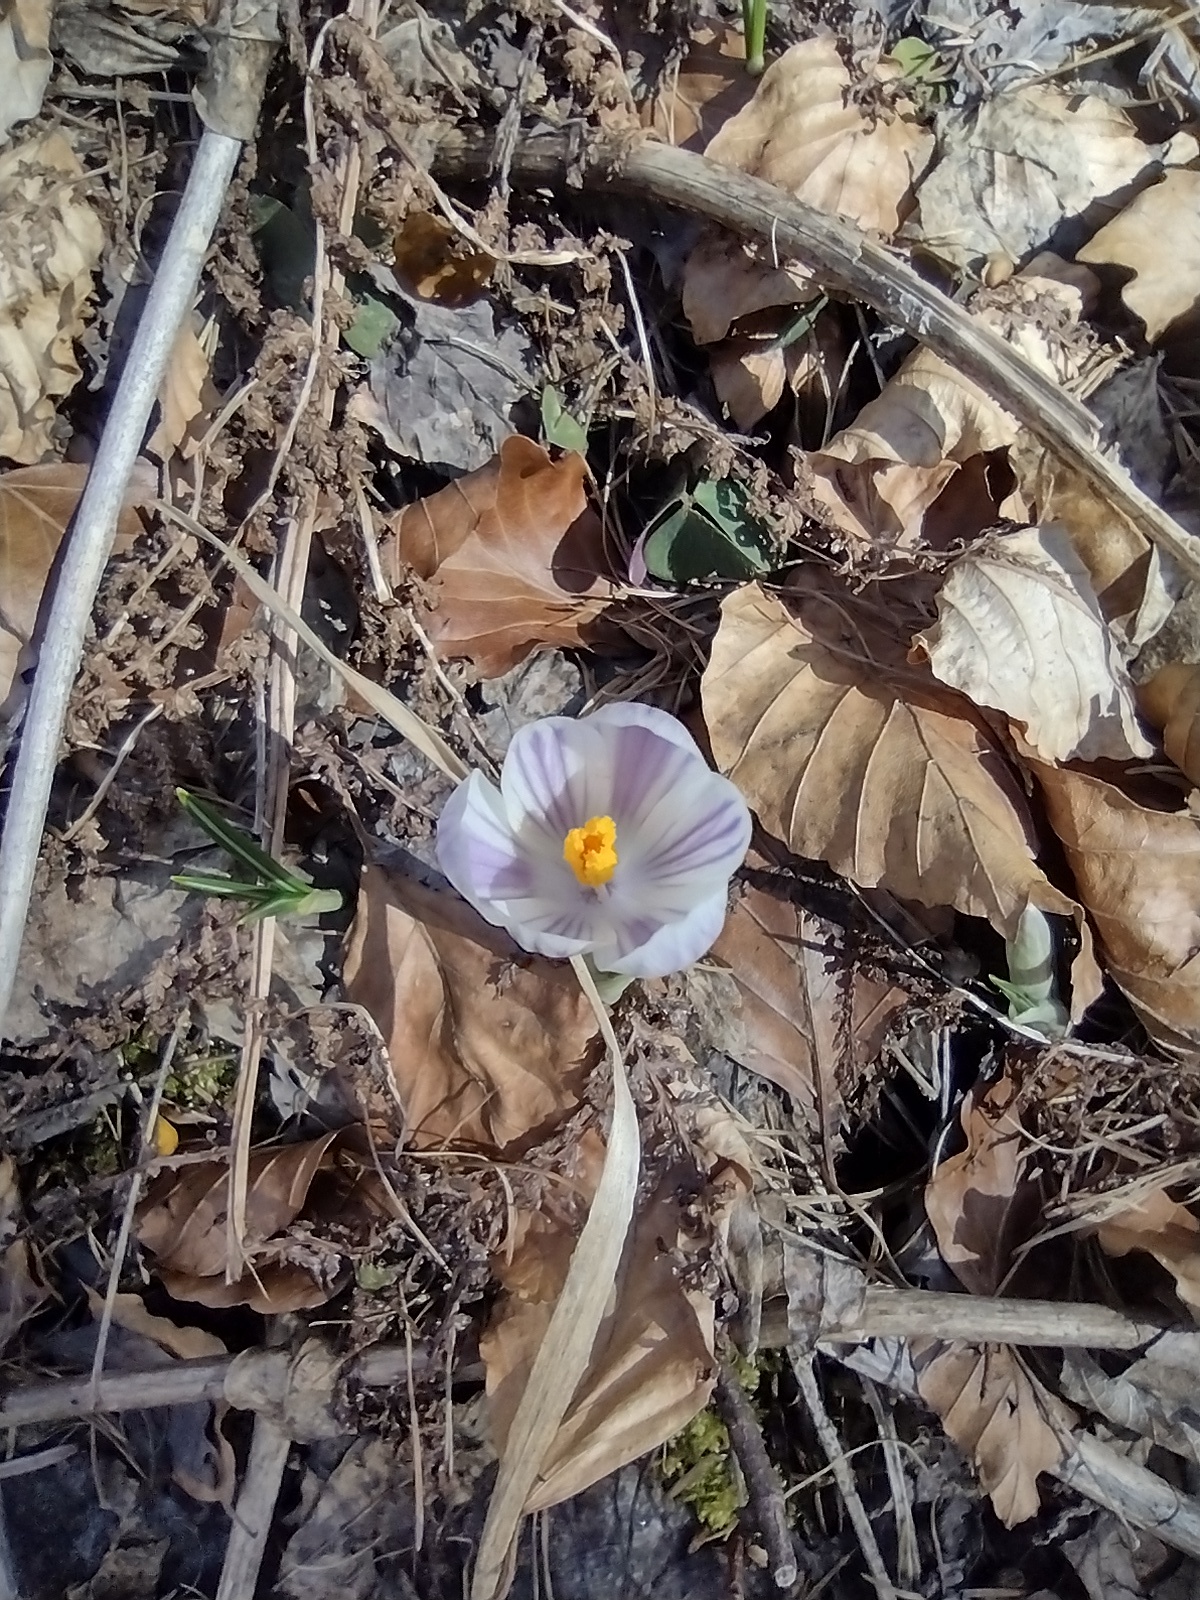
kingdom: Plantae
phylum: Tracheophyta
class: Liliopsida
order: Asparagales
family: Iridaceae
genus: Crocus
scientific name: Crocus vernus
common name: Spring crocus
